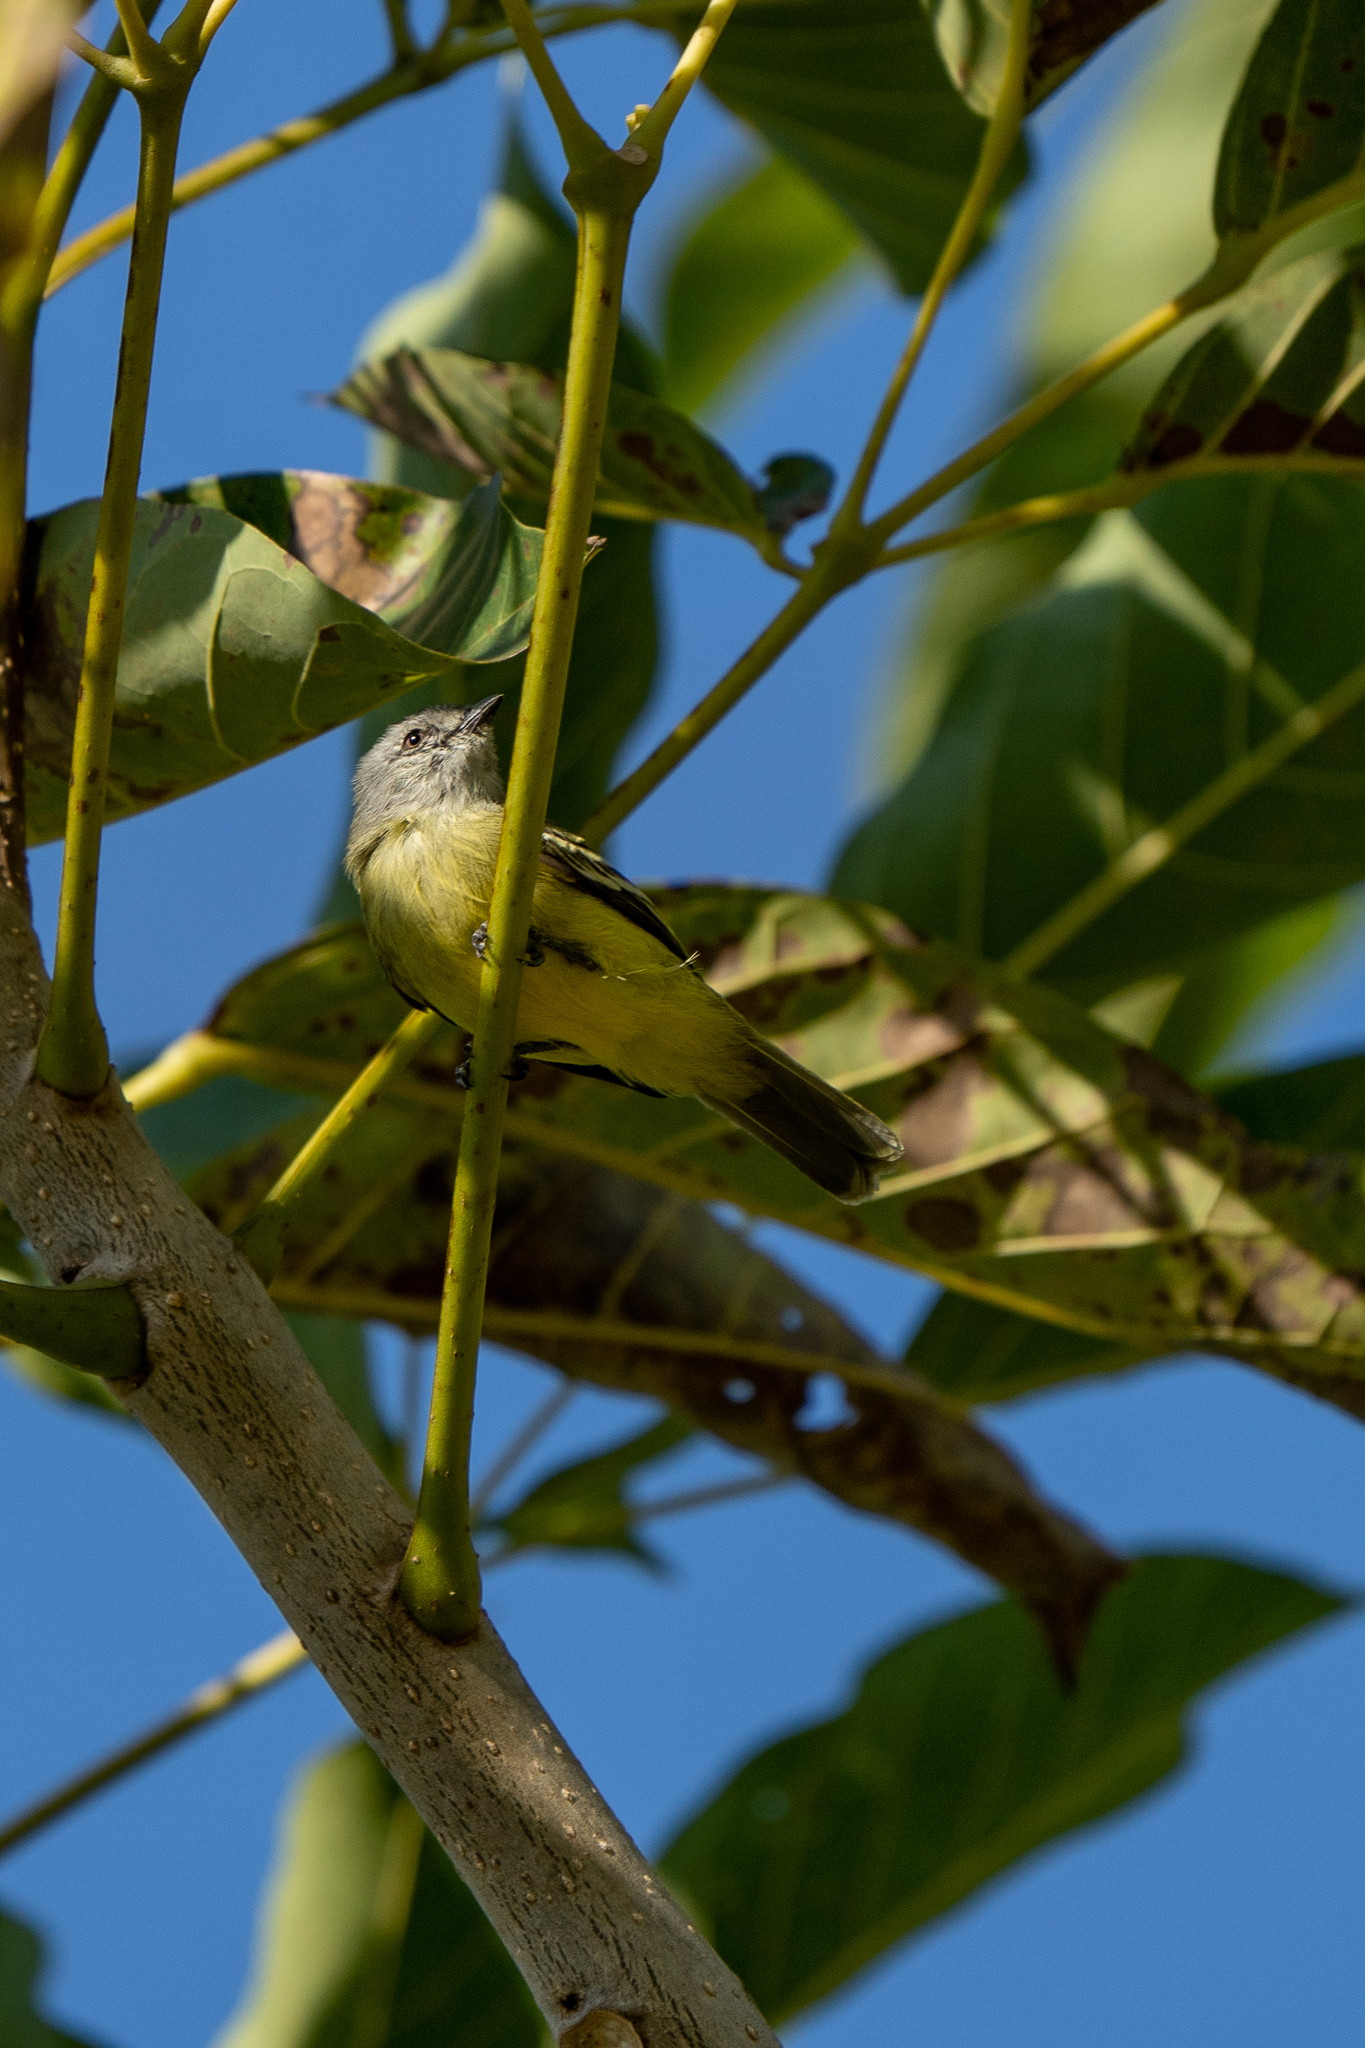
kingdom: Animalia
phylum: Chordata
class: Aves
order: Passeriformes
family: Tyrannidae
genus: Tyrannulus
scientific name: Tyrannulus elatus
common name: Yellow-crowned tyrannulet
